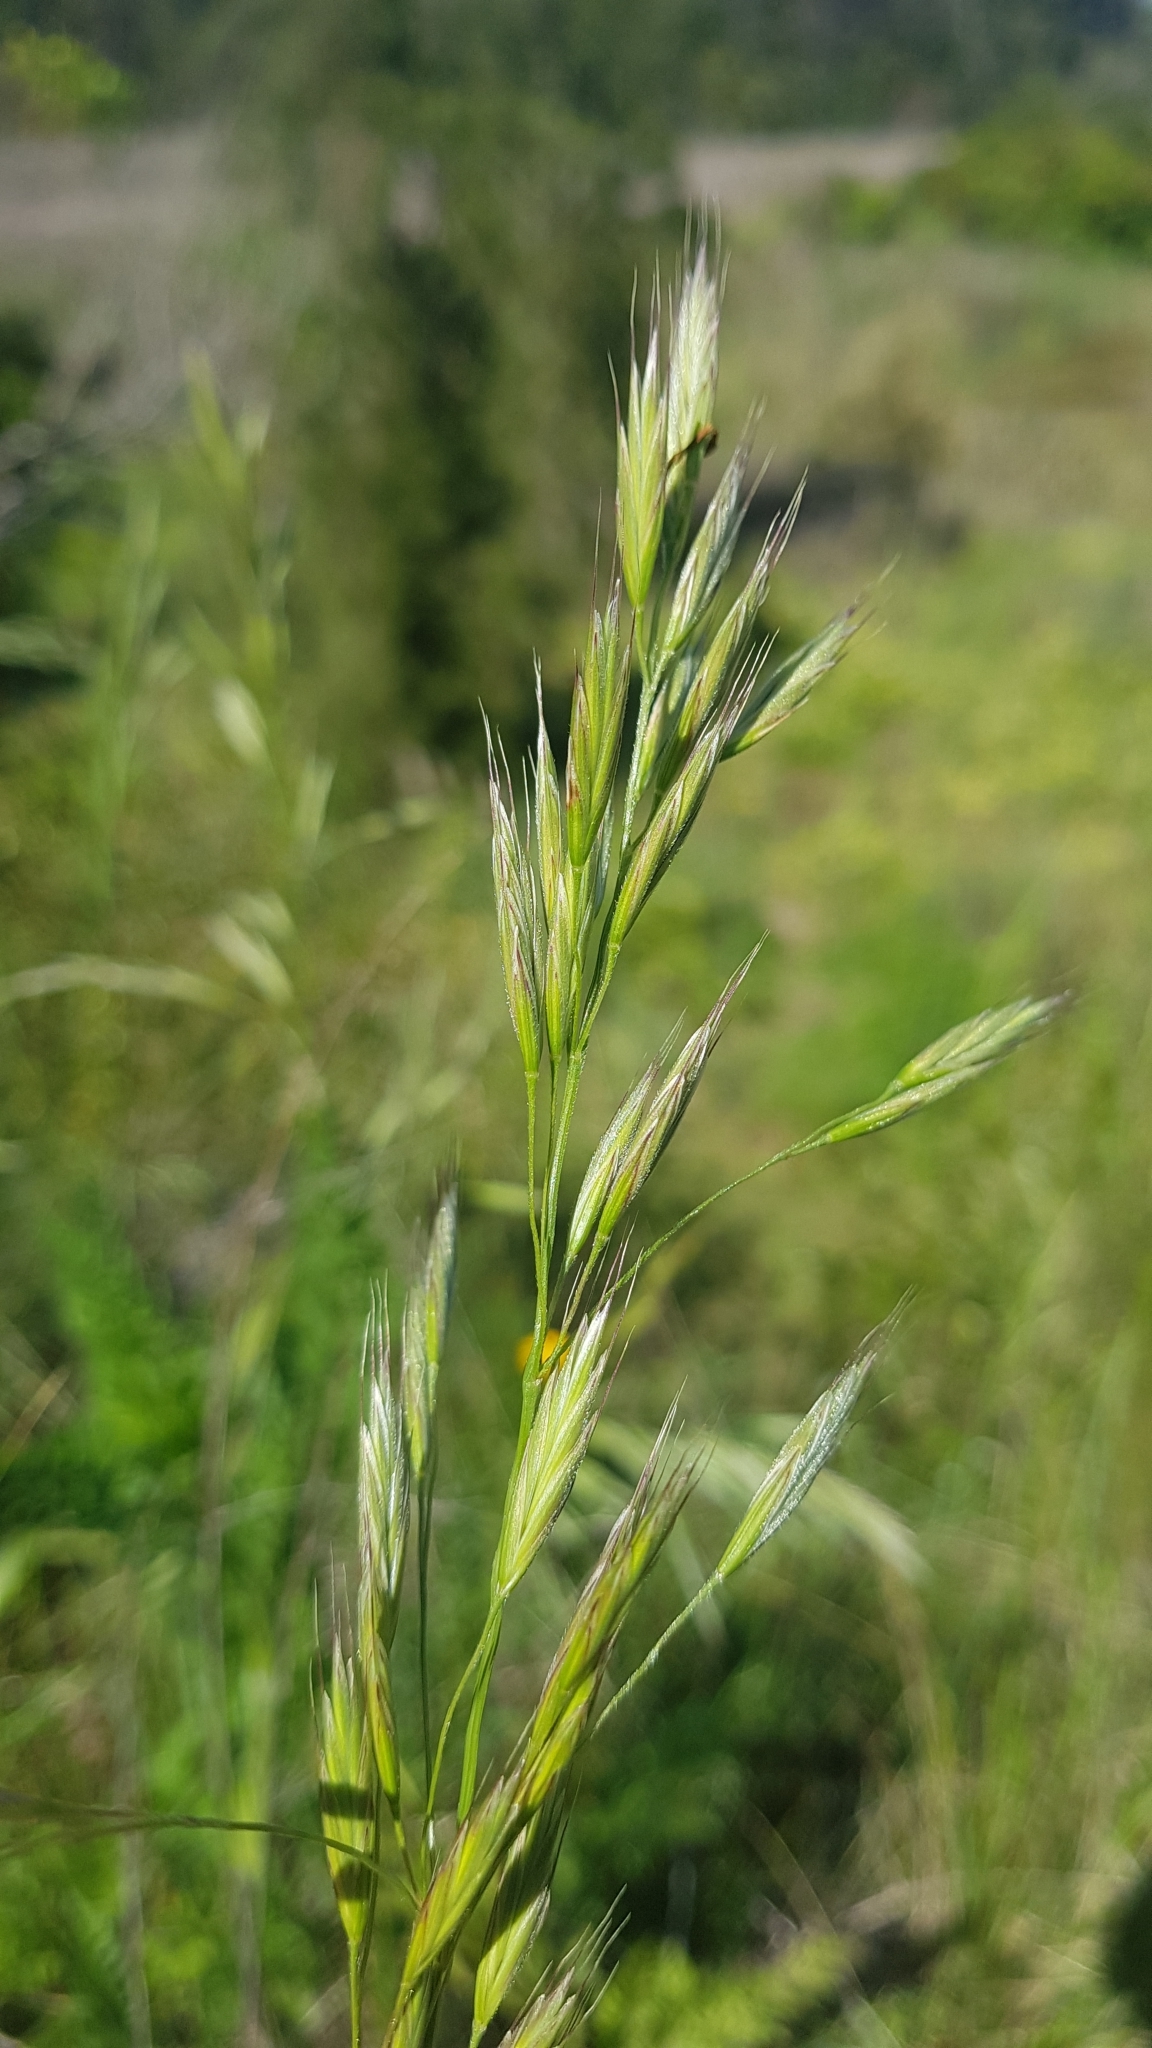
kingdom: Plantae
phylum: Tracheophyta
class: Liliopsida
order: Poales
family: Poaceae
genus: Bromus
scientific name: Bromus auleticus
